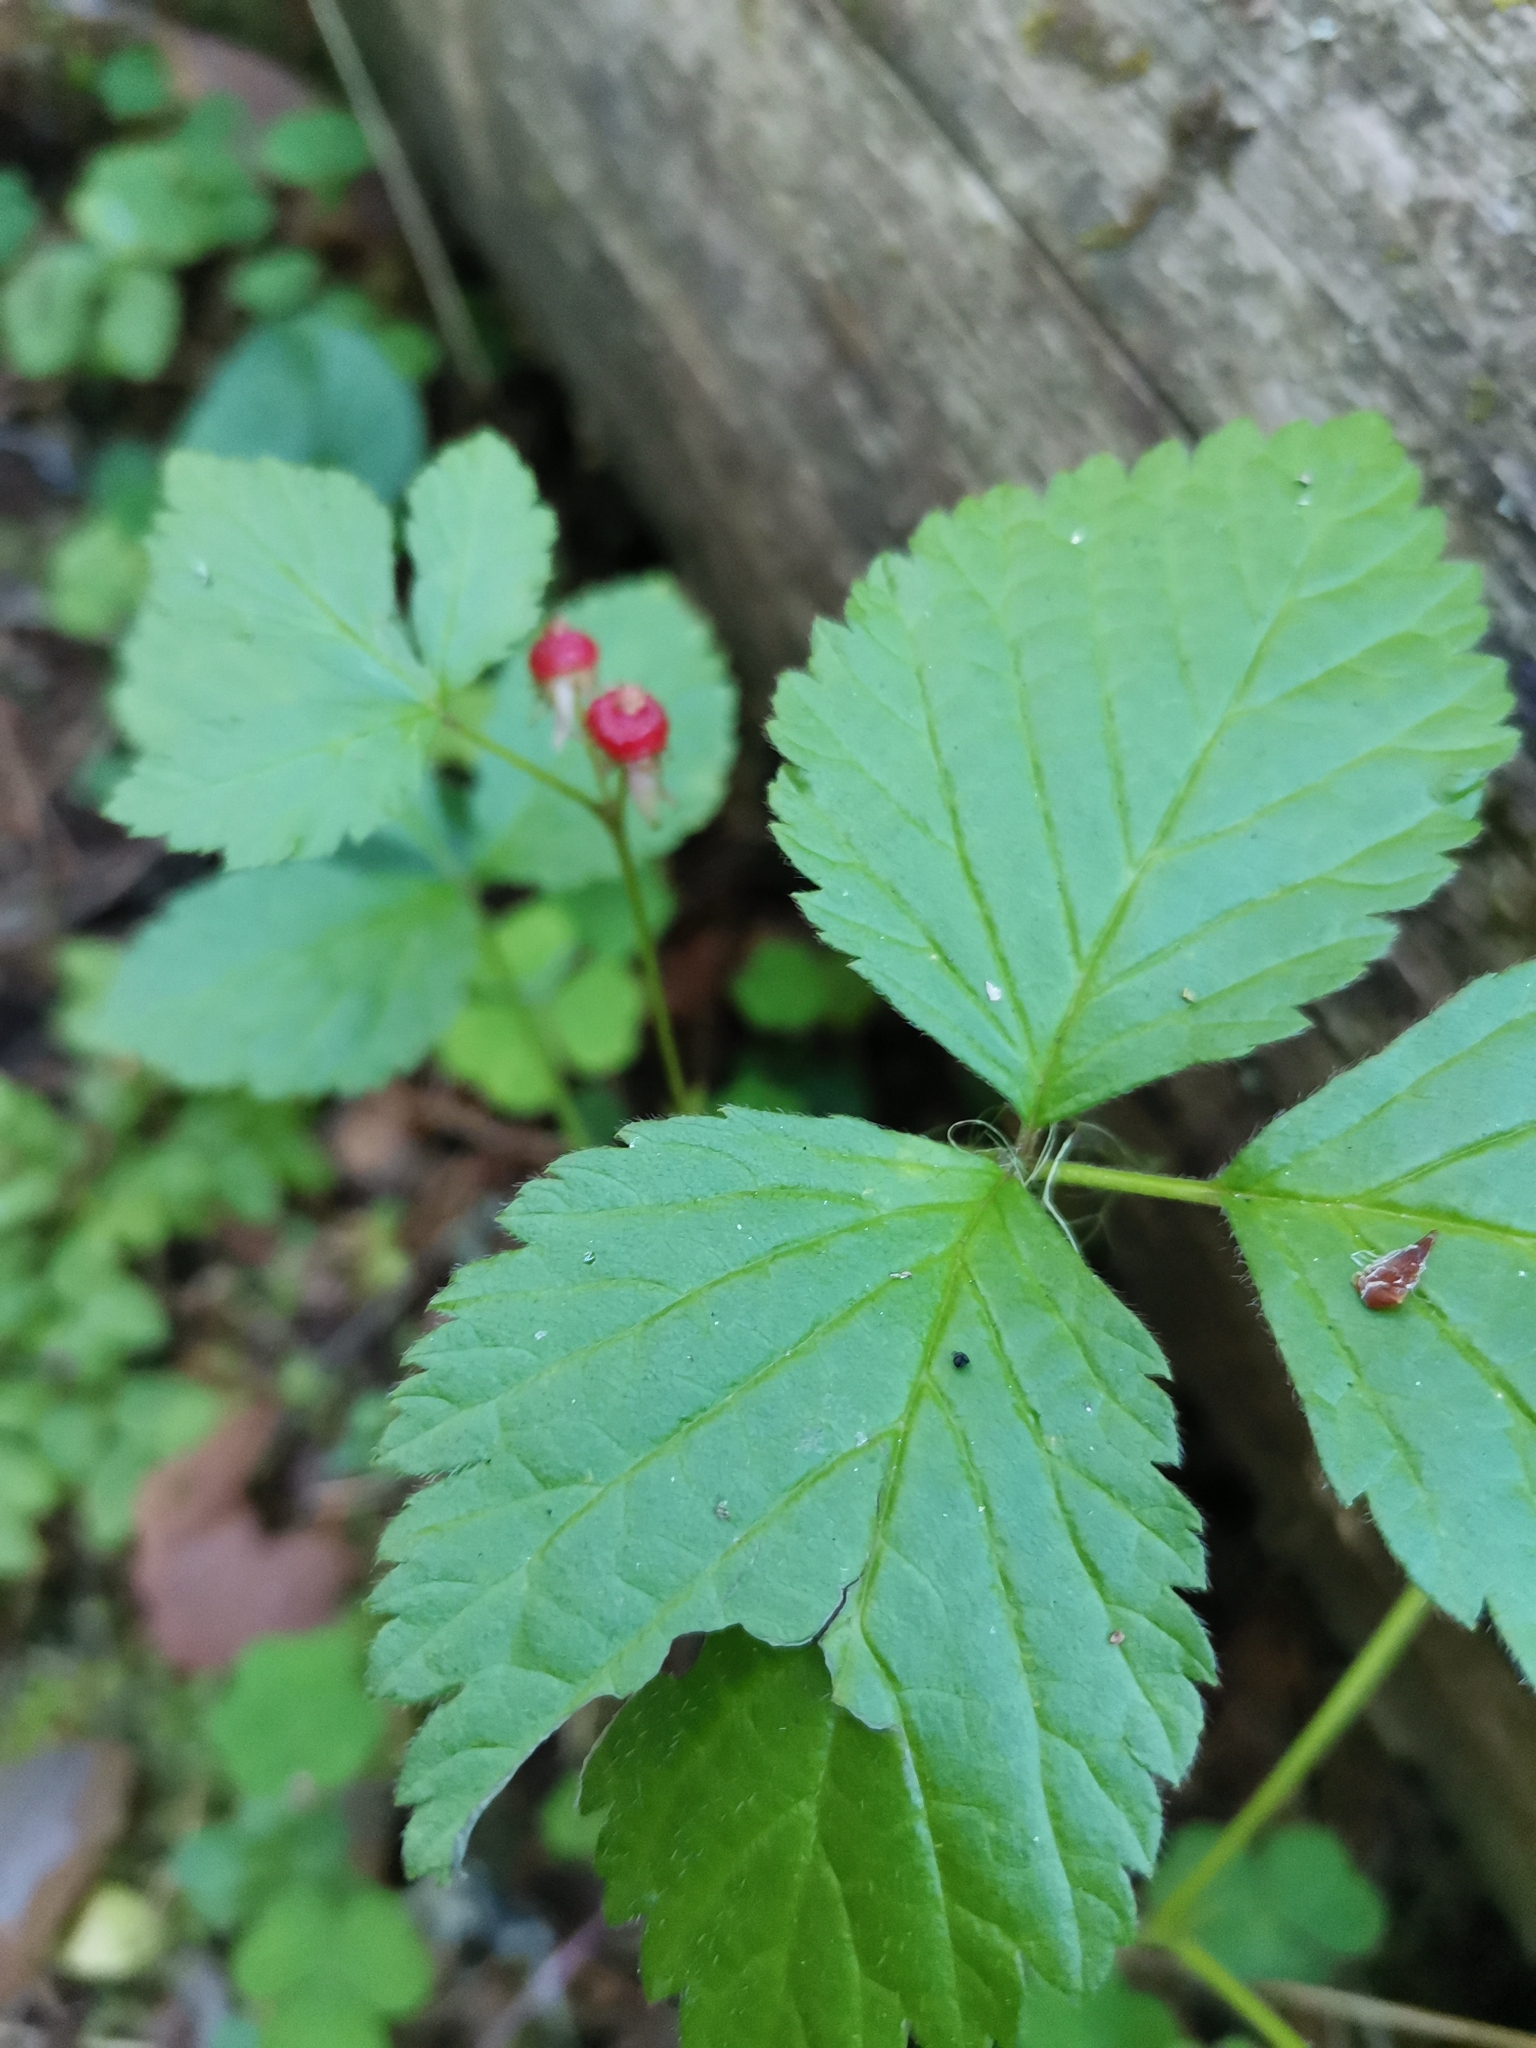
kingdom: Plantae
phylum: Tracheophyta
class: Magnoliopsida
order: Rosales
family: Rosaceae
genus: Rubus
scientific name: Rubus saxatilis
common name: Stone bramble
